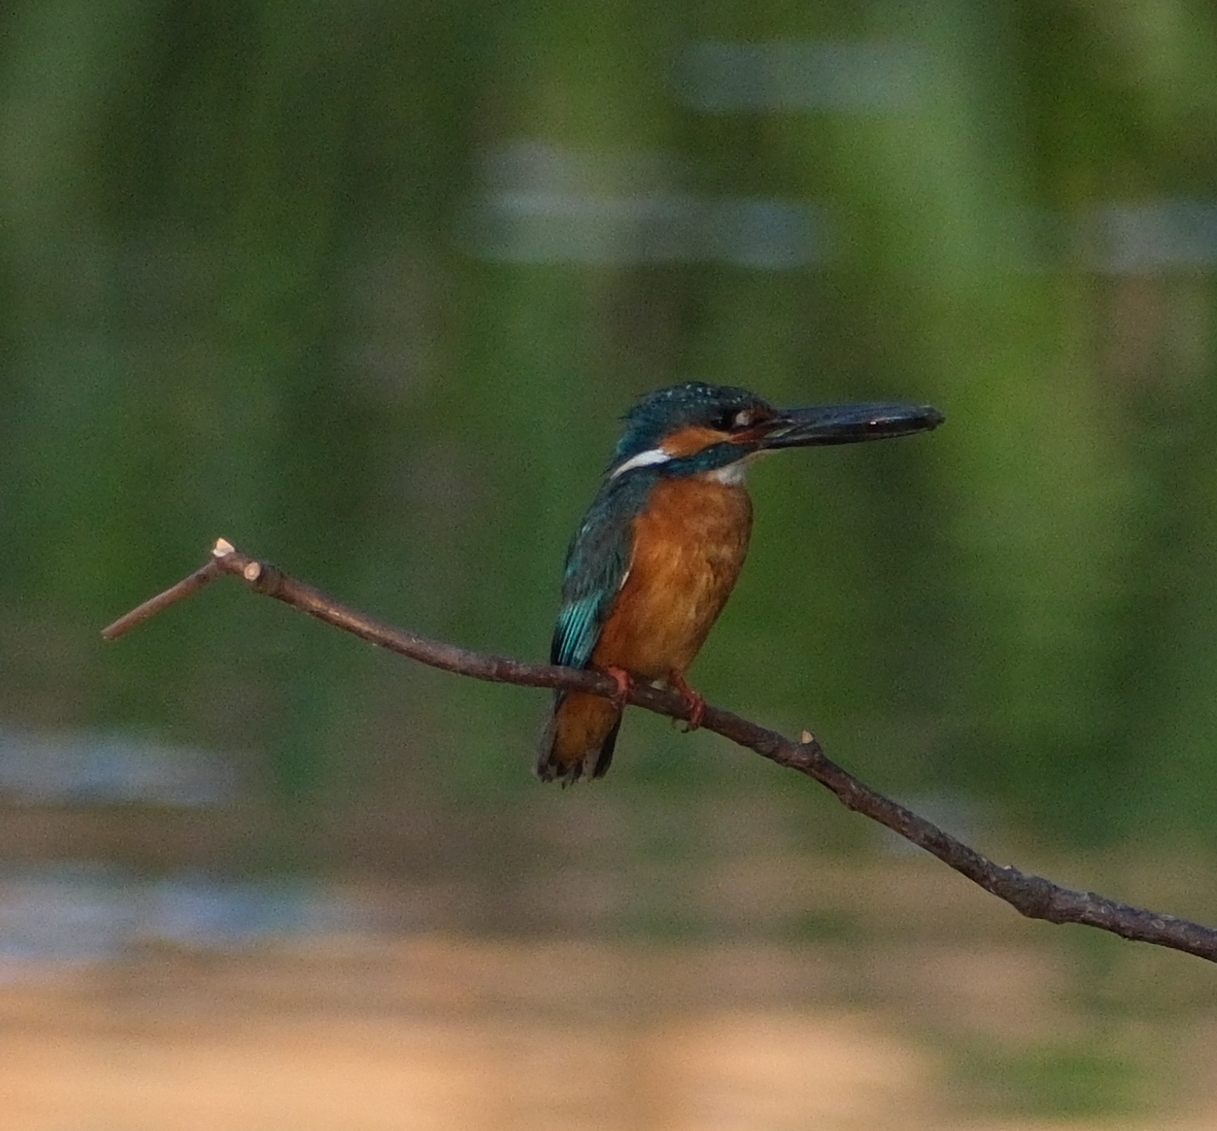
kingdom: Animalia
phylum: Chordata
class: Aves
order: Coraciiformes
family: Alcedinidae
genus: Alcedo
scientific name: Alcedo atthis
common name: Common kingfisher
